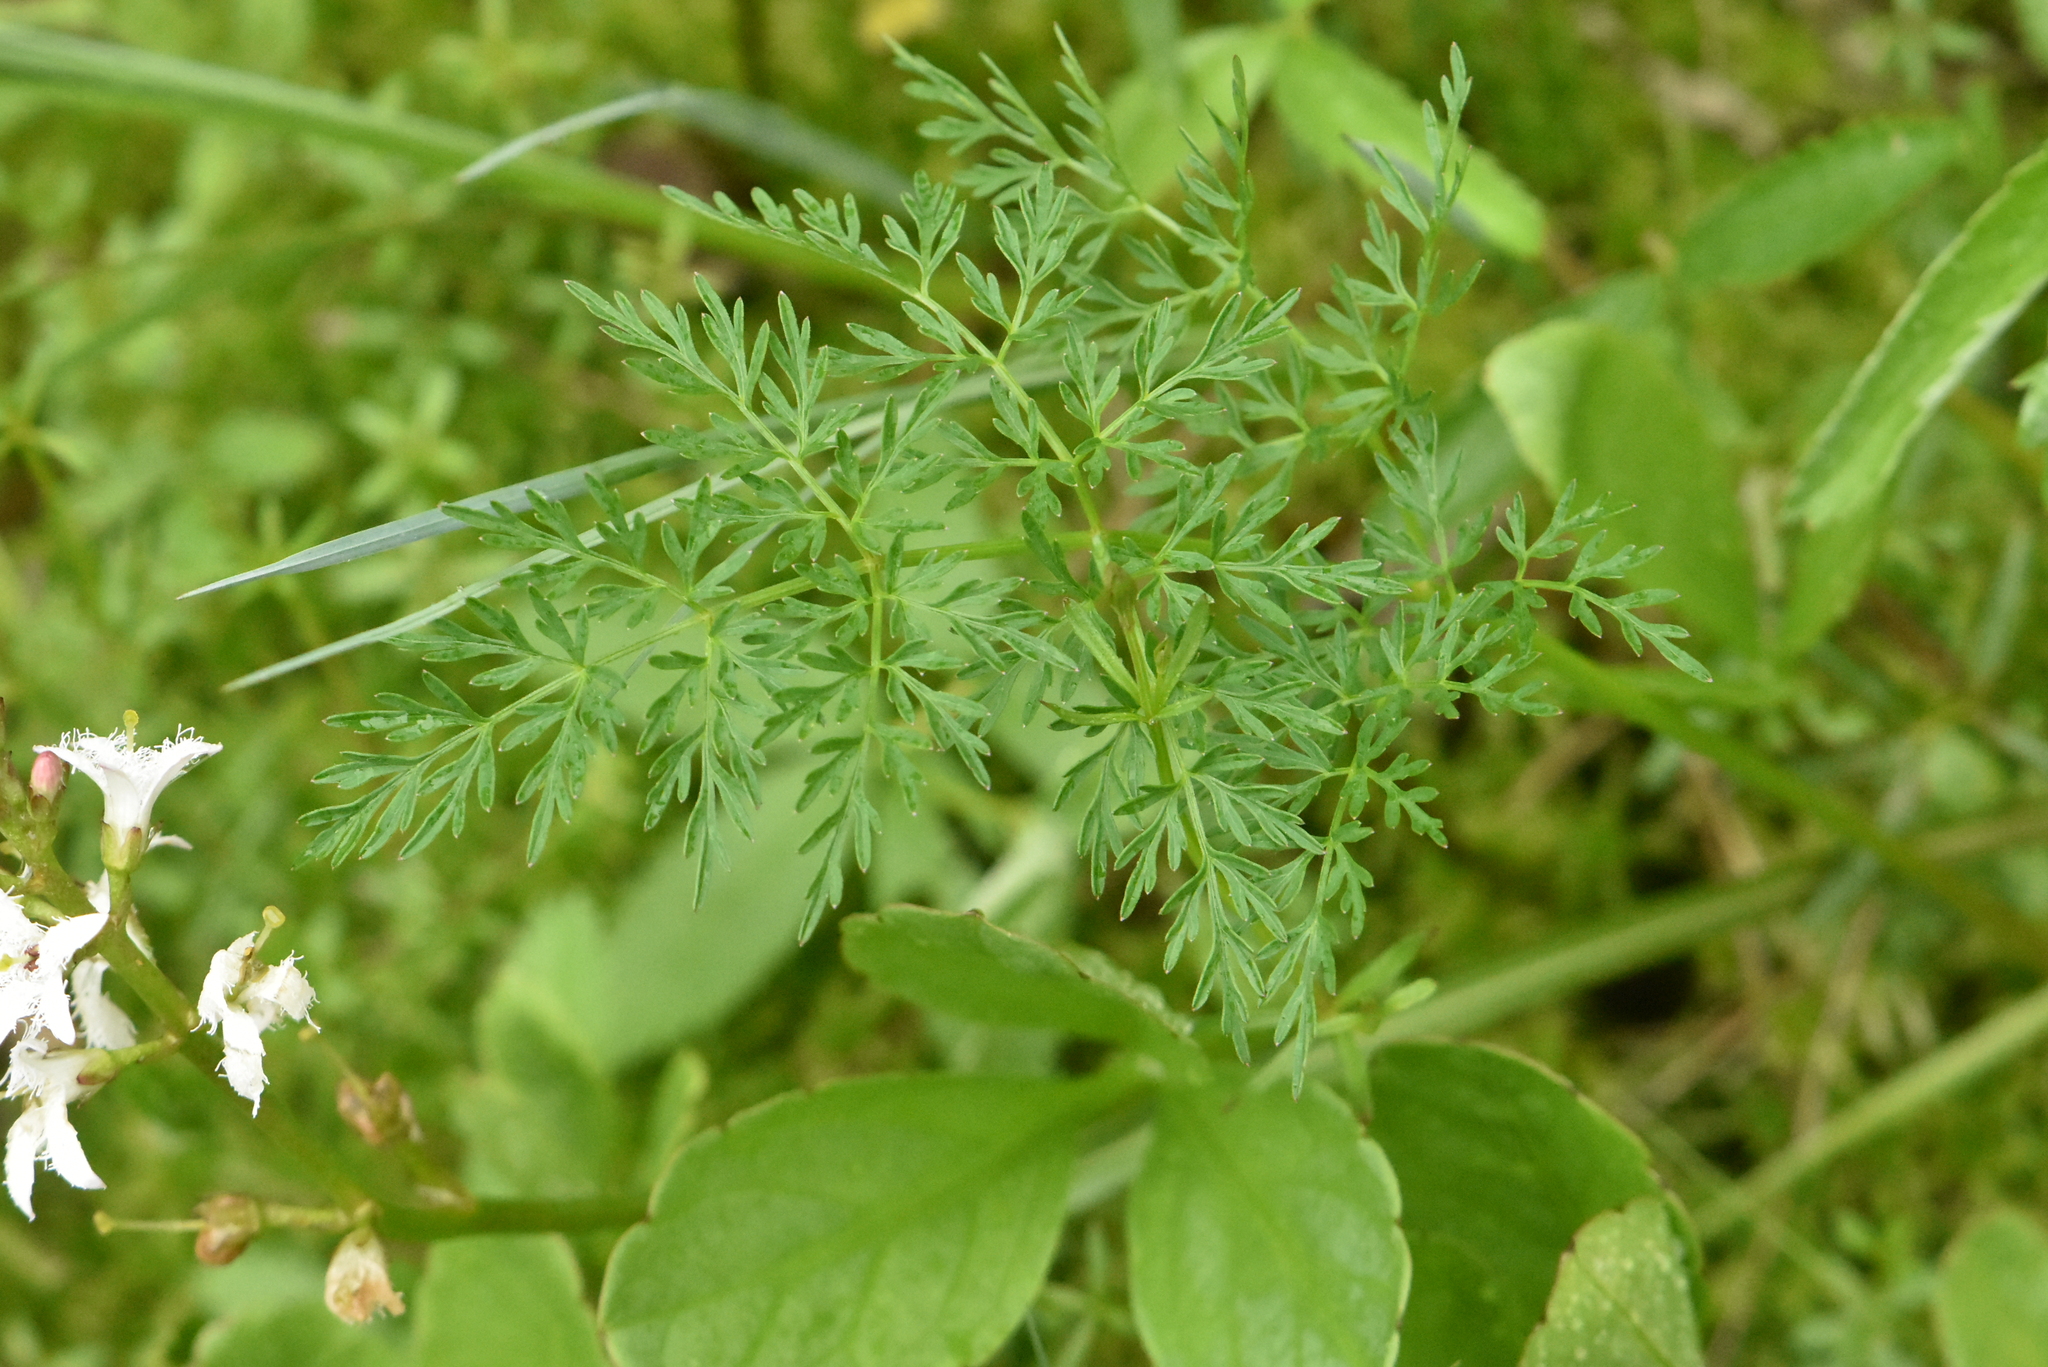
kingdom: Plantae
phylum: Tracheophyta
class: Magnoliopsida
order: Apiales
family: Apiaceae
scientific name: Apiaceae
